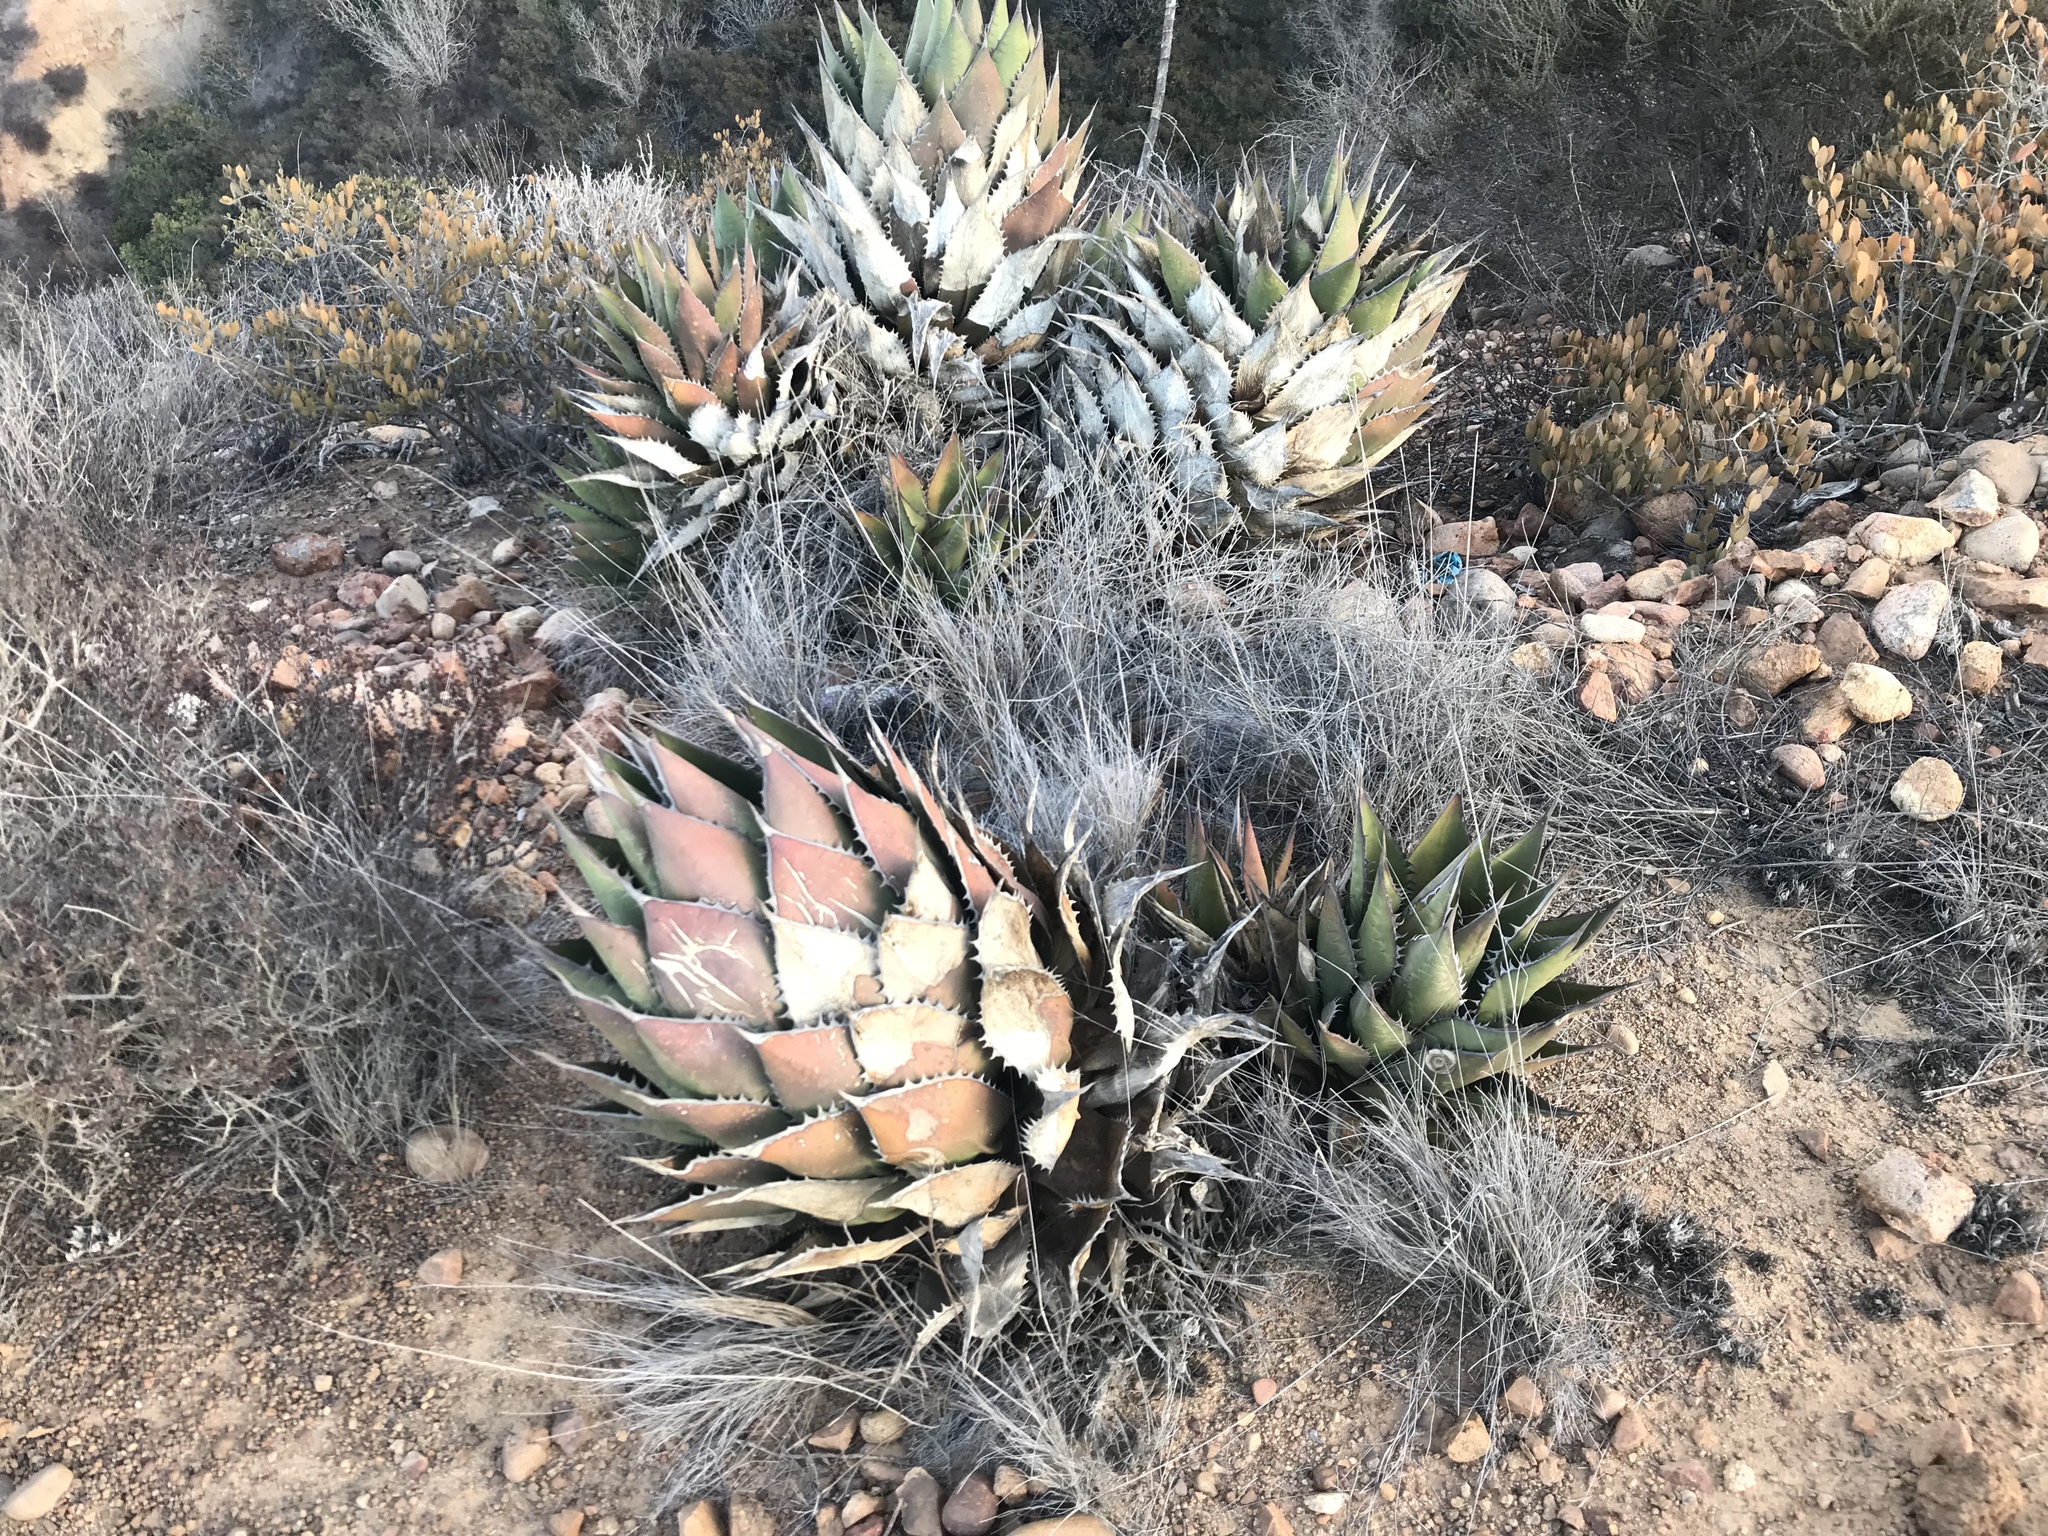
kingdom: Plantae
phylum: Tracheophyta
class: Liliopsida
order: Asparagales
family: Asparagaceae
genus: Agave
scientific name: Agave shawii
